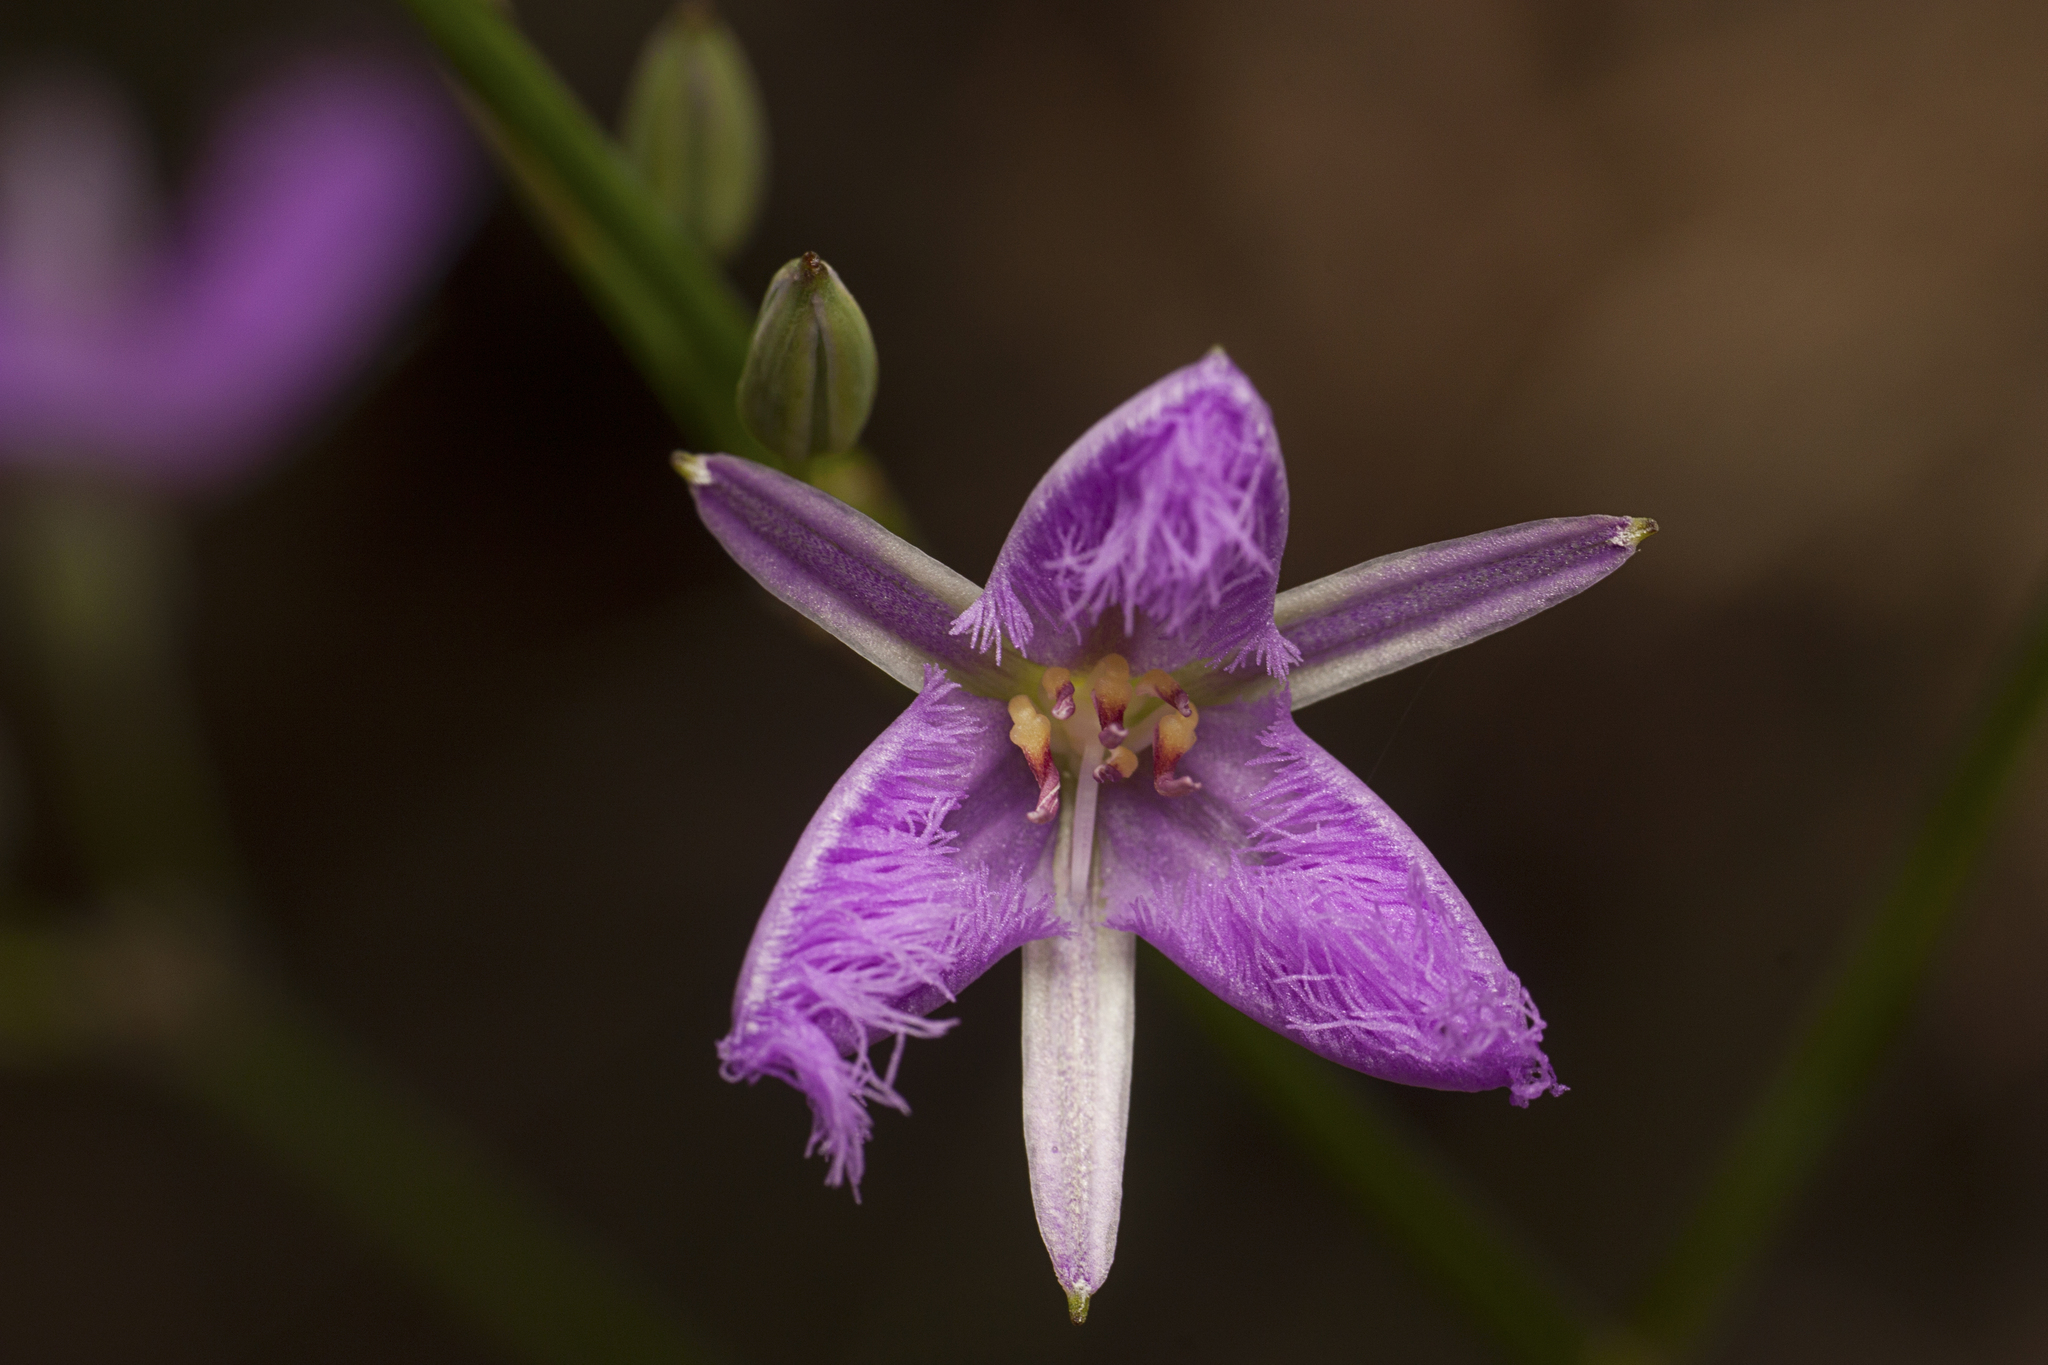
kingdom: Plantae
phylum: Tracheophyta
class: Liliopsida
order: Asparagales
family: Asparagaceae
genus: Thysanotus
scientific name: Thysanotus tuberosus
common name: Common fringed-lily
